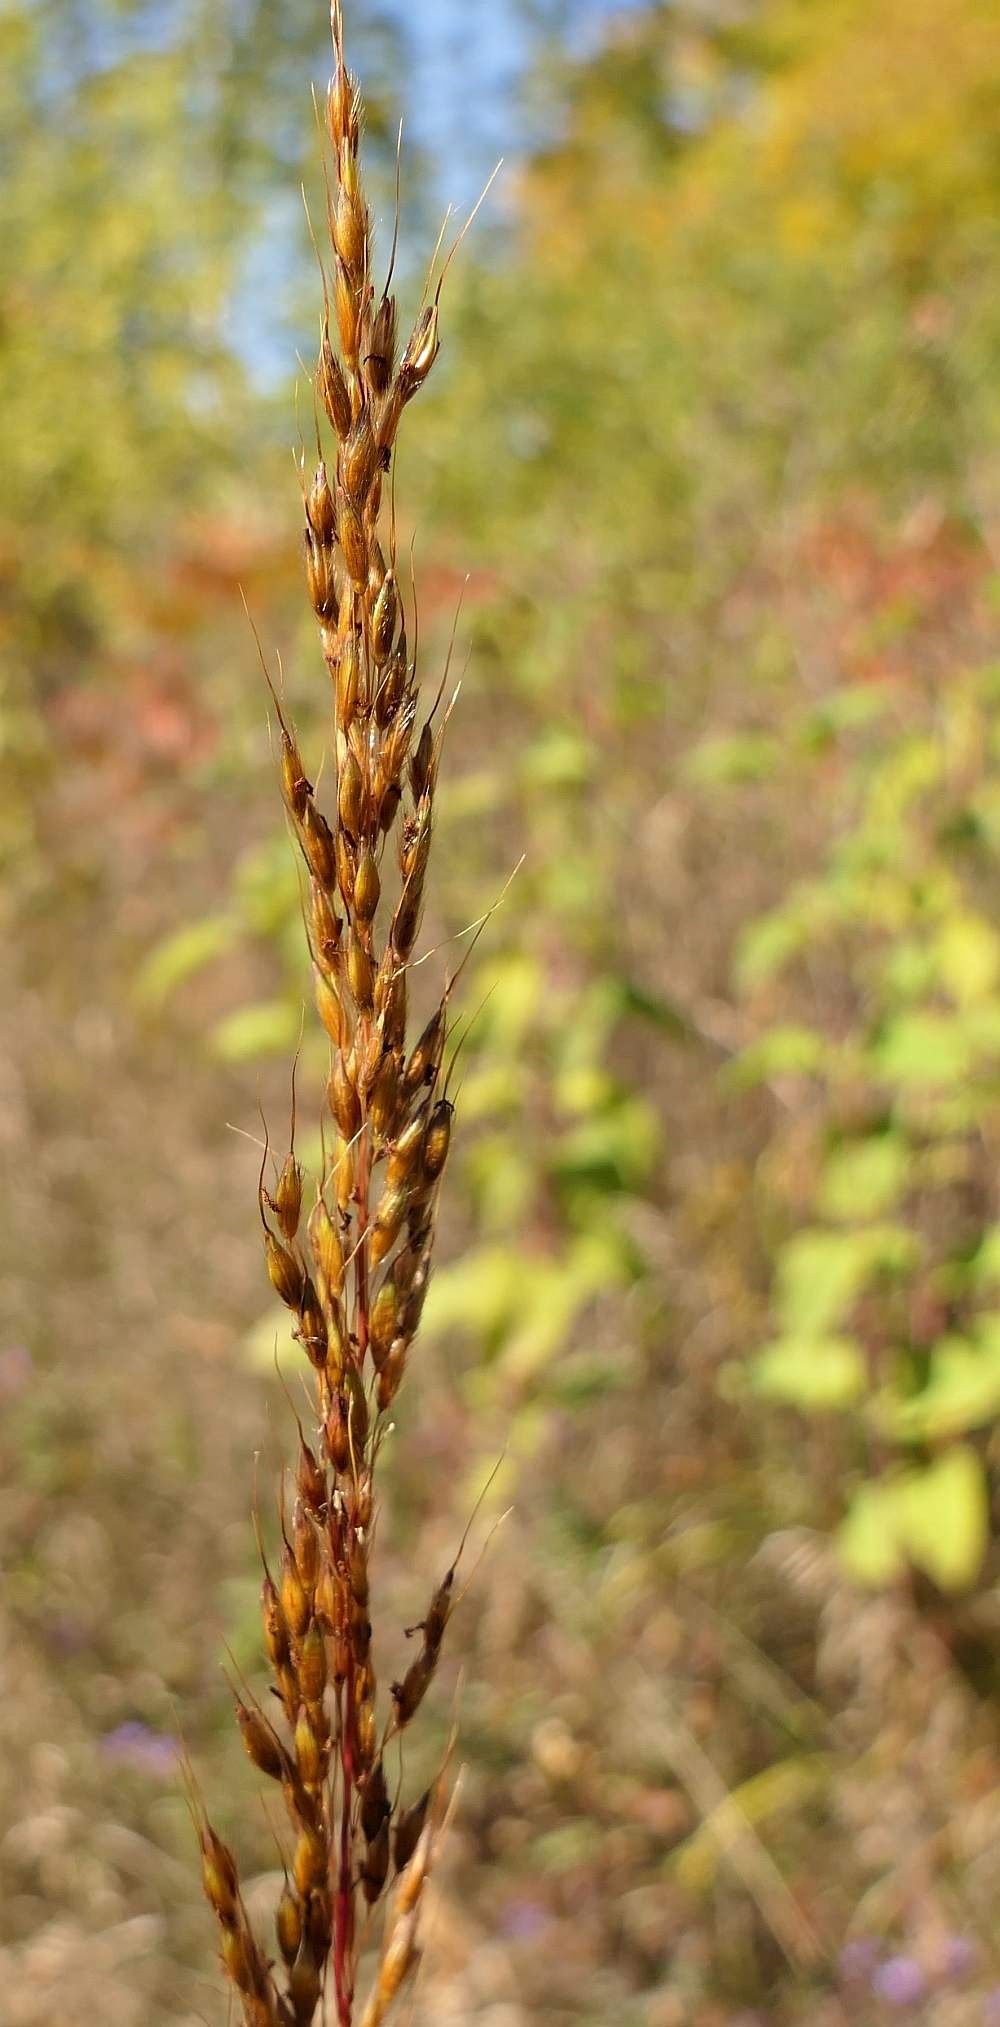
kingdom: Plantae
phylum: Tracheophyta
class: Liliopsida
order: Poales
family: Poaceae
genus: Sorghastrum
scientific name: Sorghastrum nutans
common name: Indian grass
